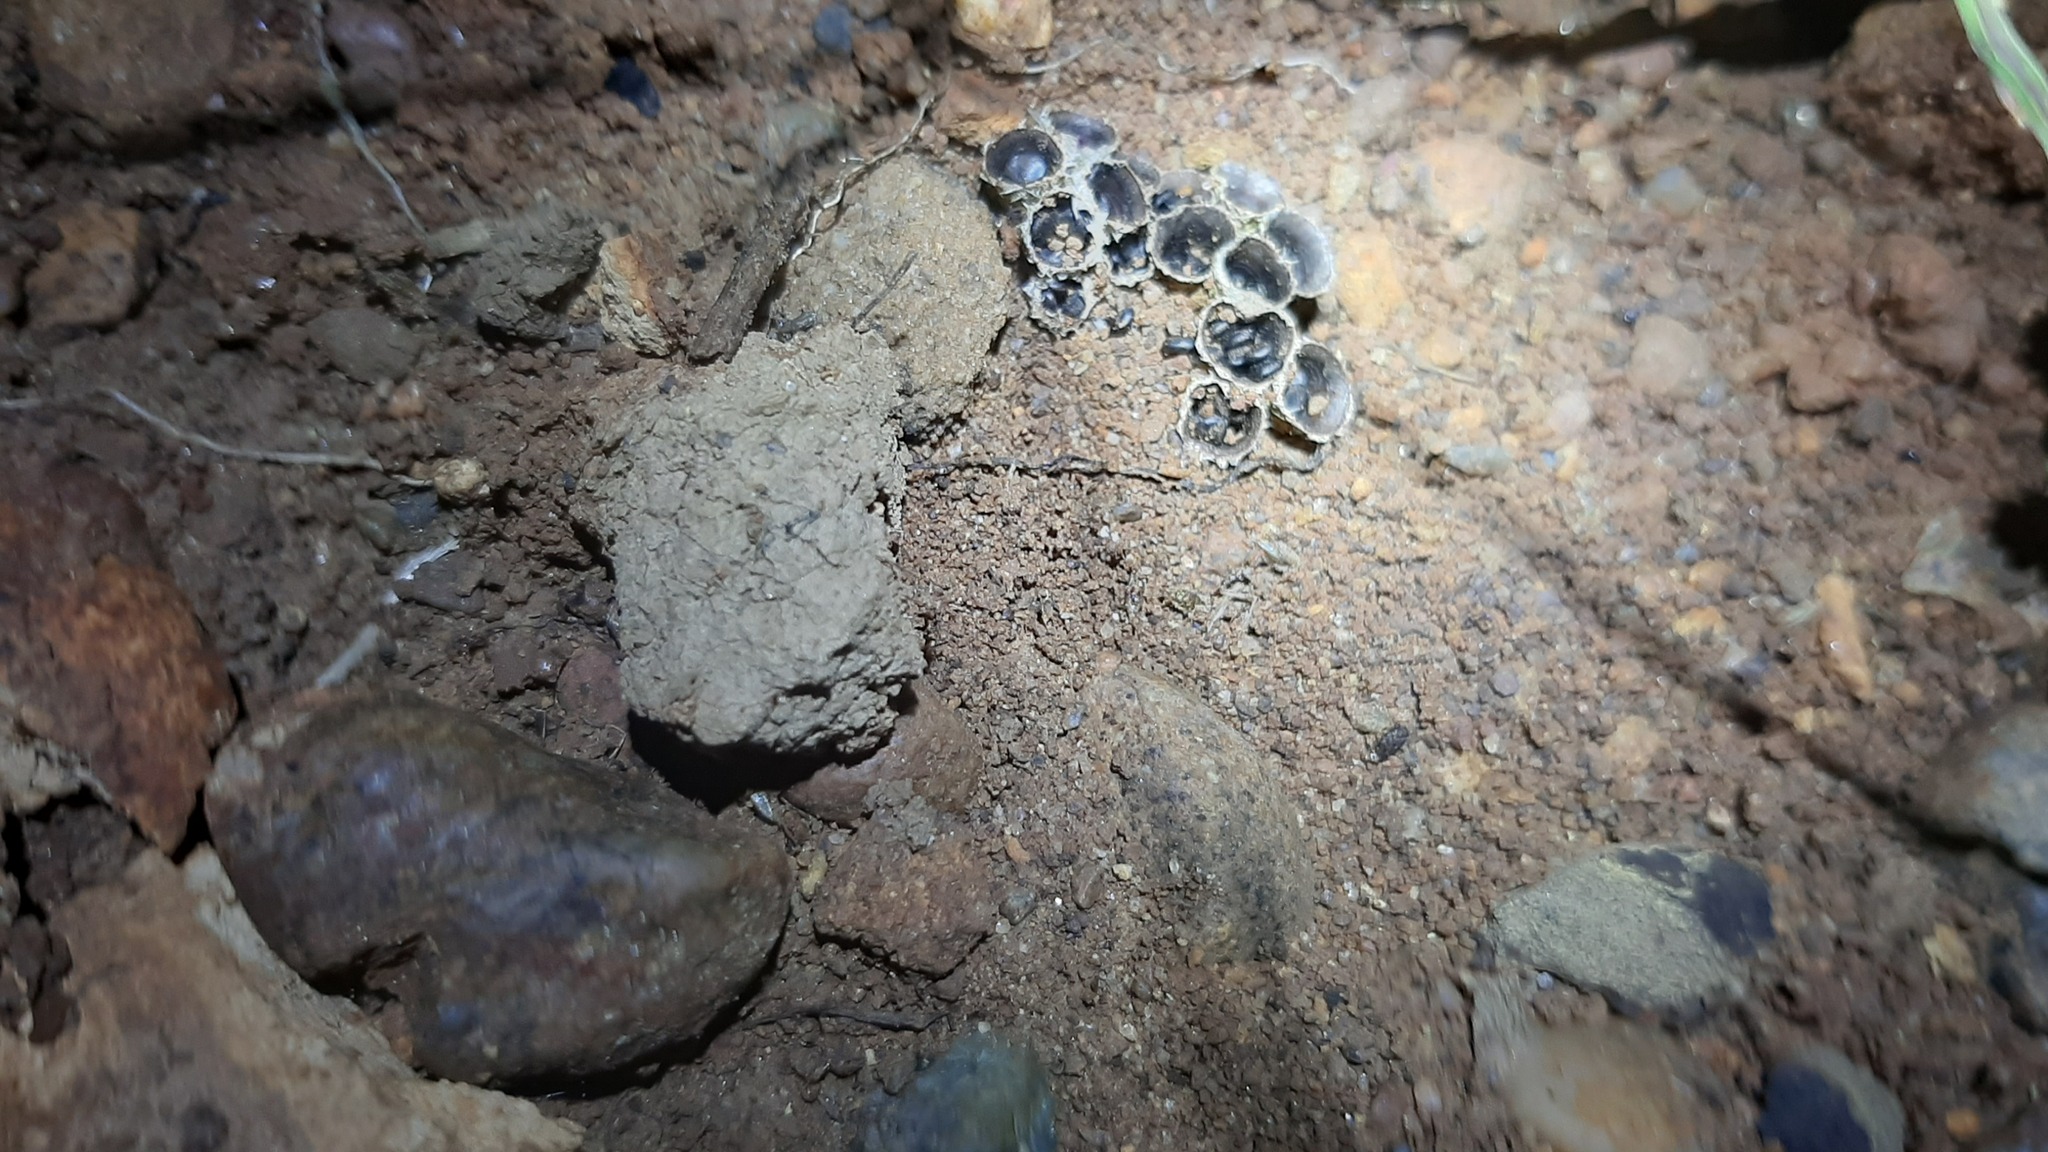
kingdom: Fungi
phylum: Basidiomycota
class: Agaricomycetes
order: Agaricales
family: Agaricaceae
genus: Cyathus
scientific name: Cyathus olla
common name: Field bird's nest
